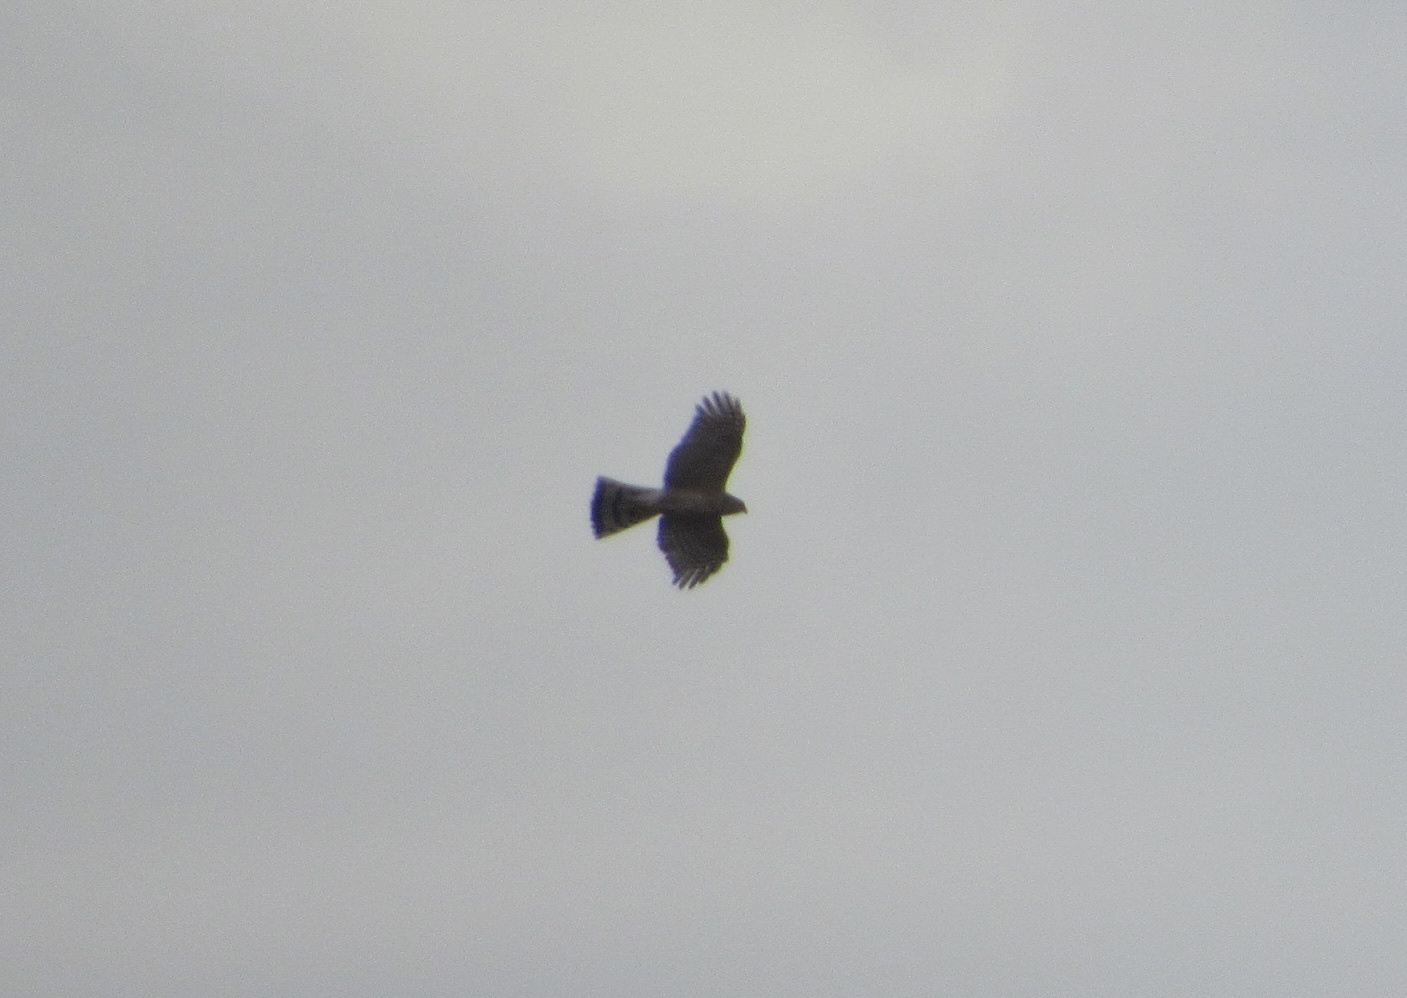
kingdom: Animalia
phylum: Chordata
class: Aves
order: Accipitriformes
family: Accipitridae
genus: Accipiter
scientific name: Accipiter striatus
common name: Sharp-shinned hawk
